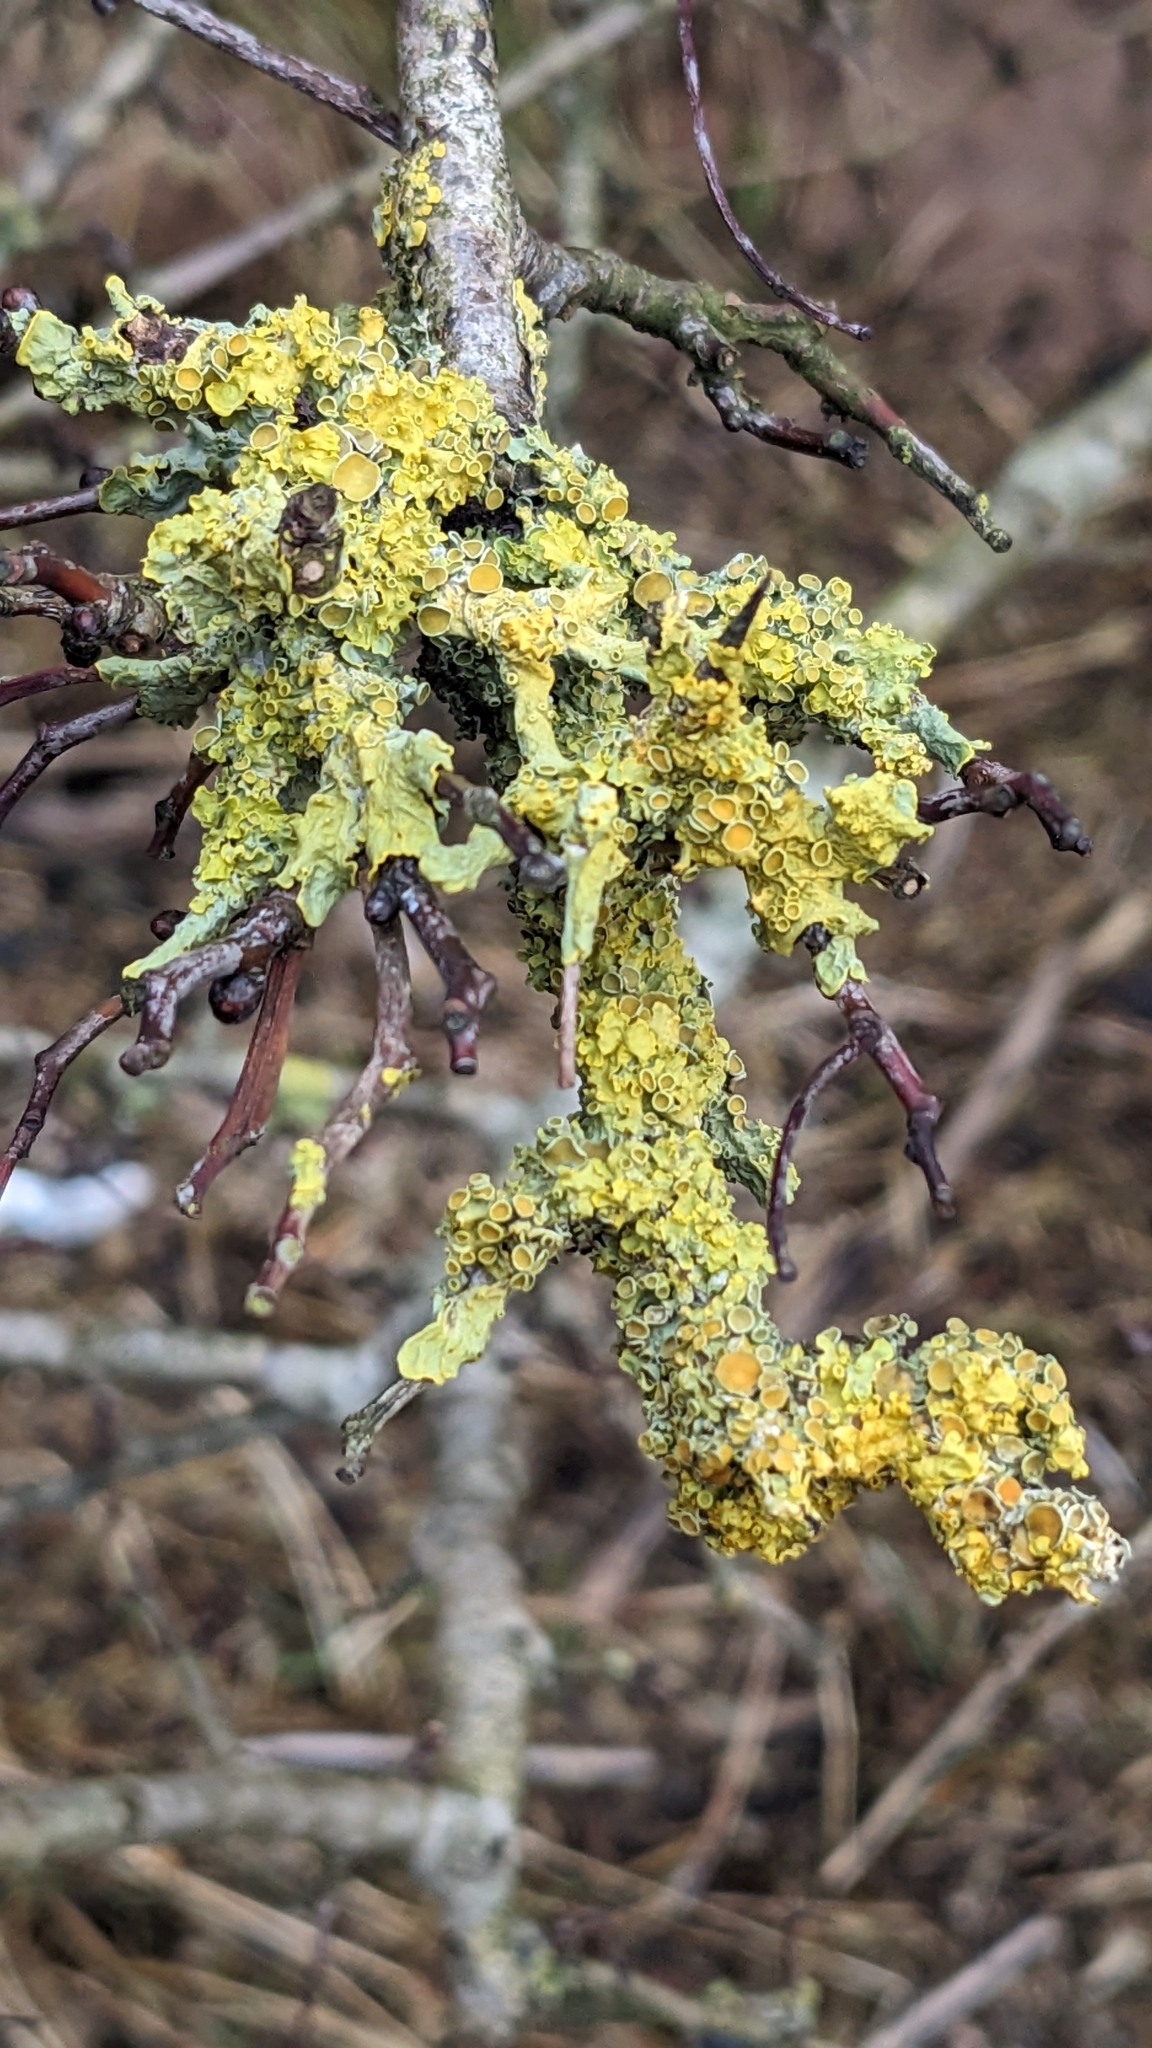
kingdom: Fungi
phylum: Ascomycota
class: Lecanoromycetes
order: Teloschistales
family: Teloschistaceae
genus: Xanthoria
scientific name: Xanthoria parietina
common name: Common orange lichen
